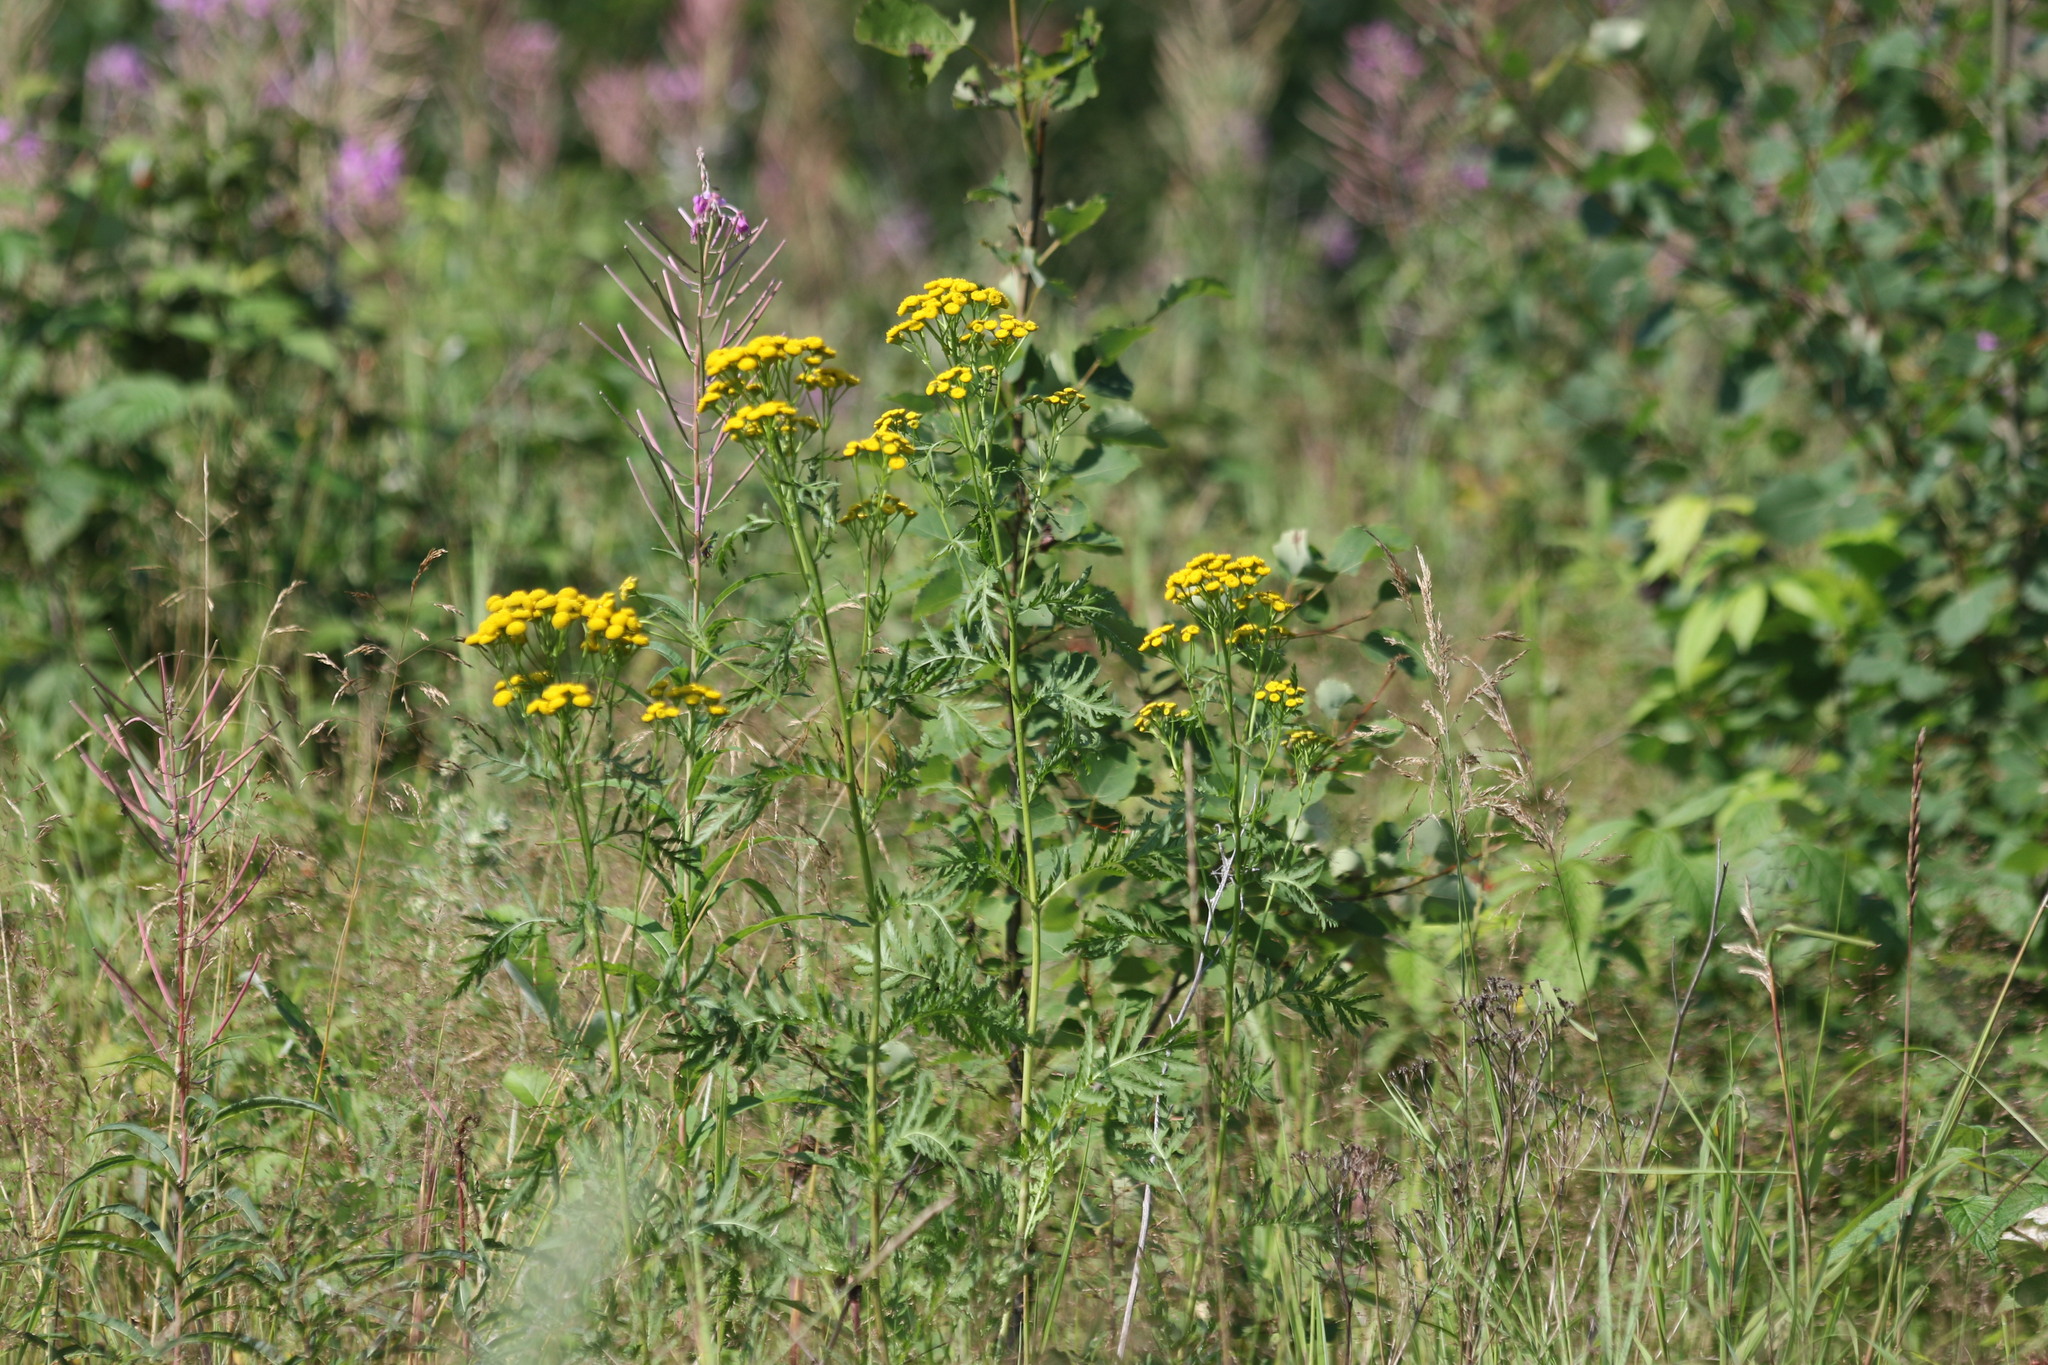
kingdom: Plantae
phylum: Tracheophyta
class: Magnoliopsida
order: Asterales
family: Asteraceae
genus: Tanacetum
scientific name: Tanacetum vulgare
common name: Common tansy
